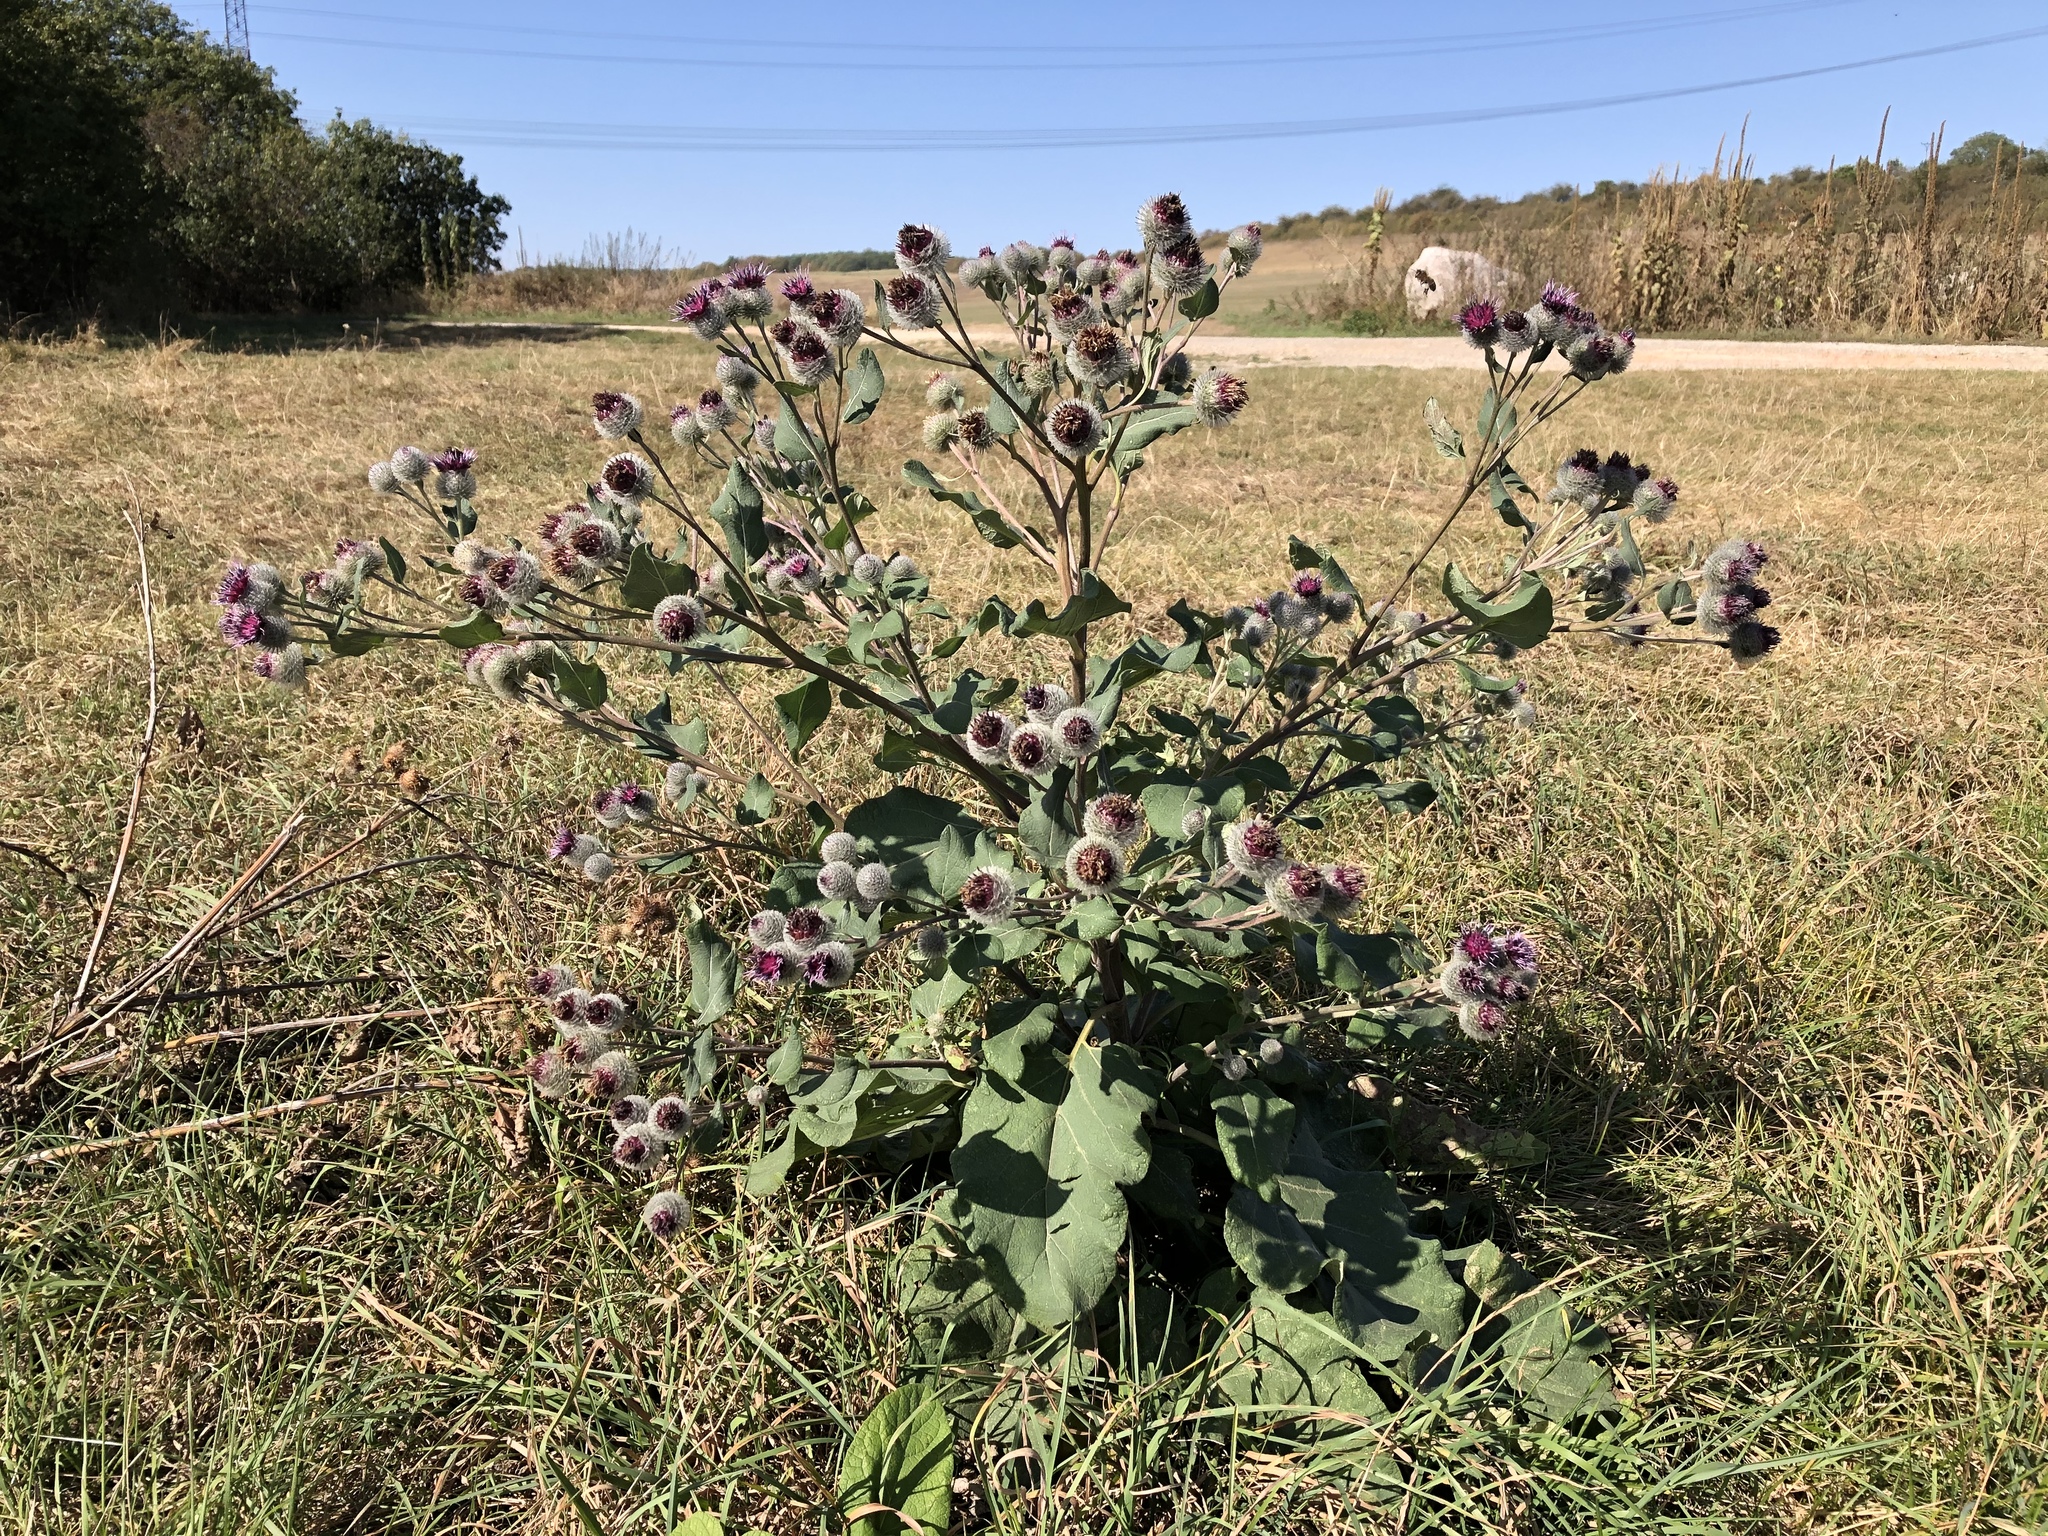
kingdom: Plantae
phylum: Tracheophyta
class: Magnoliopsida
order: Asterales
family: Asteraceae
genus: Arctium
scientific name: Arctium tomentosum
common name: Woolly burdock
